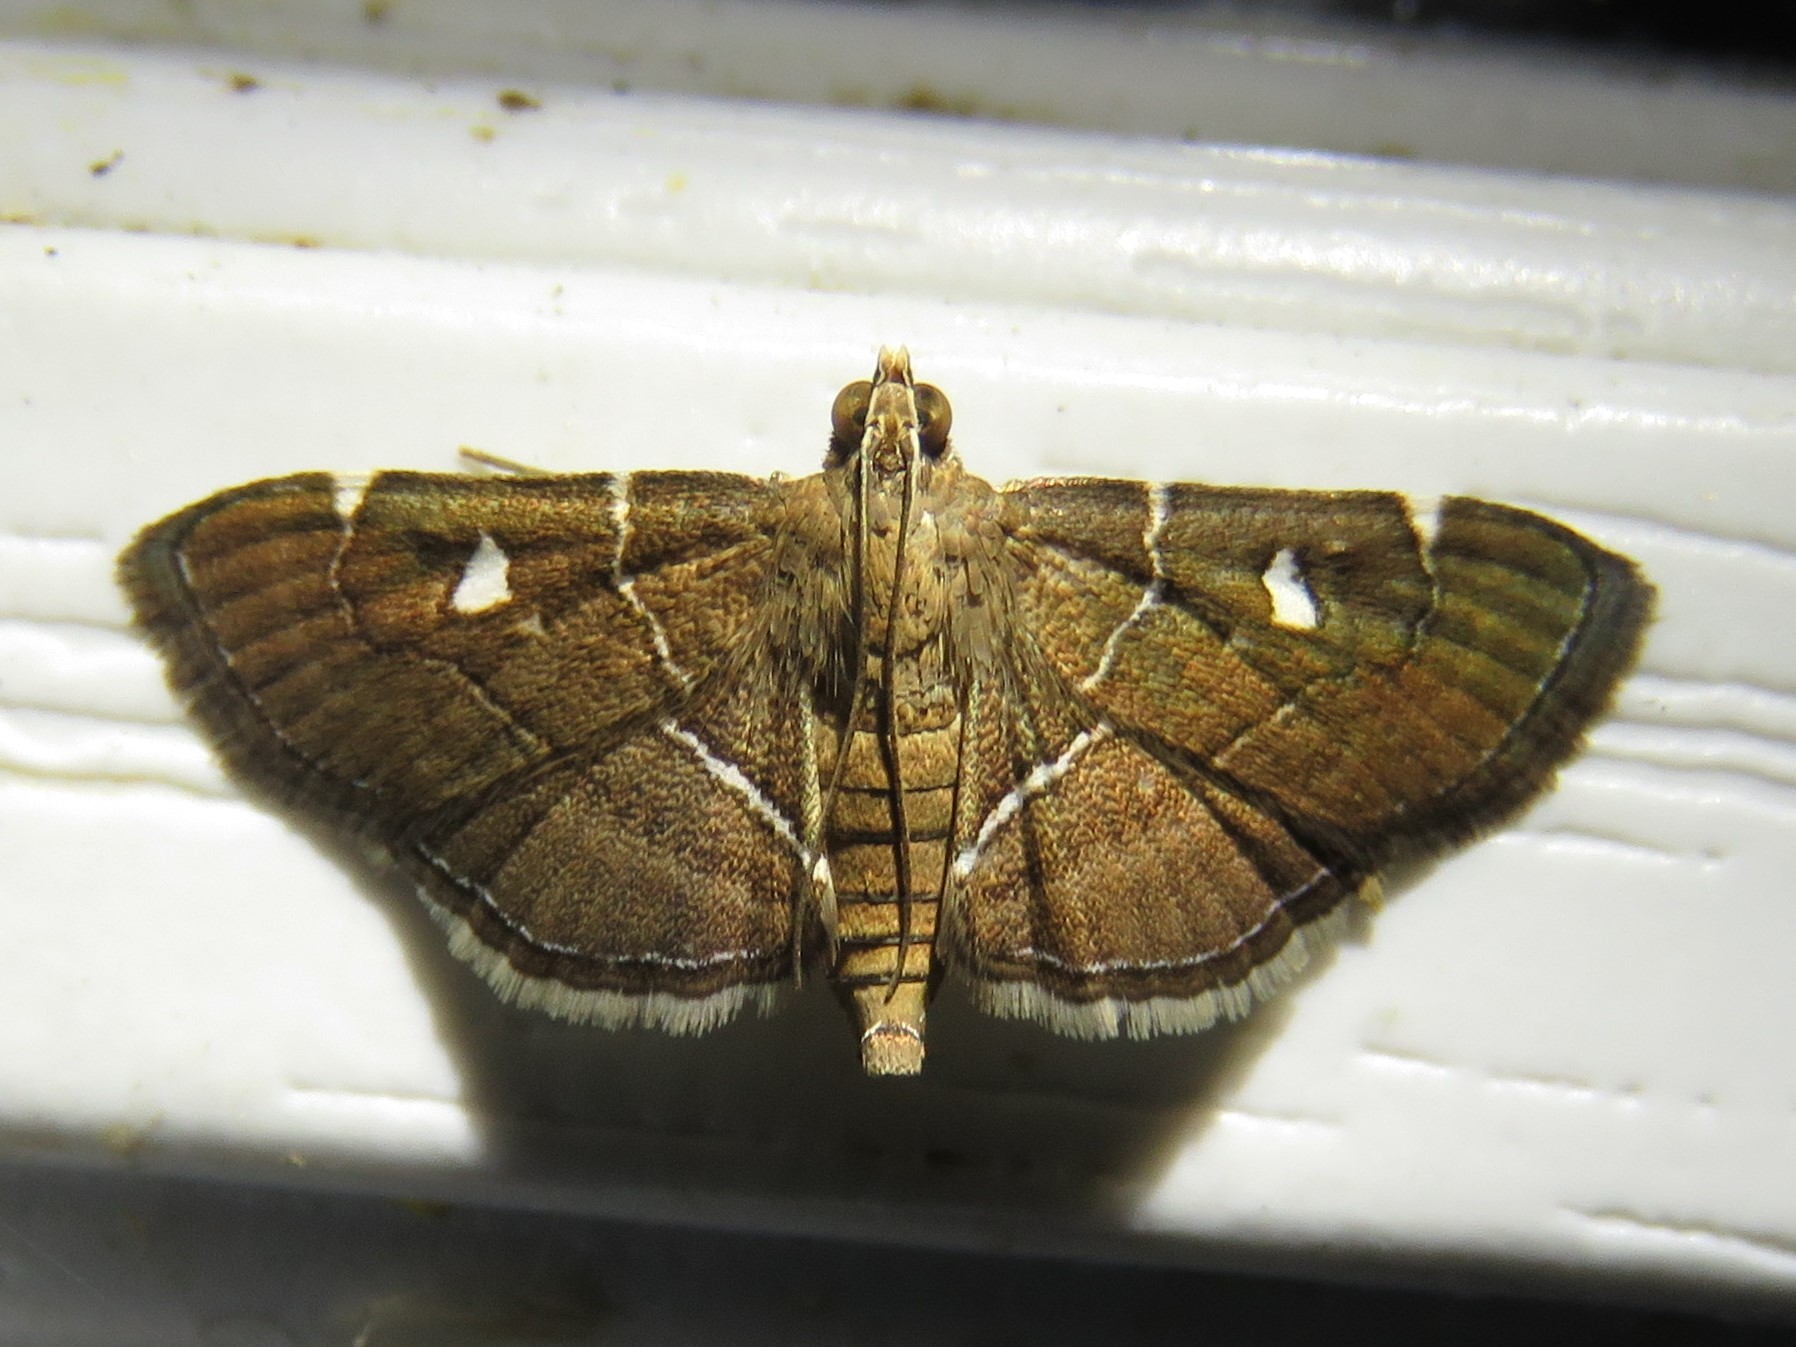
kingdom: Animalia
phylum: Arthropoda
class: Insecta
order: Lepidoptera
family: Crambidae
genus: Lamprosema
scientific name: Lamprosema victoriae
